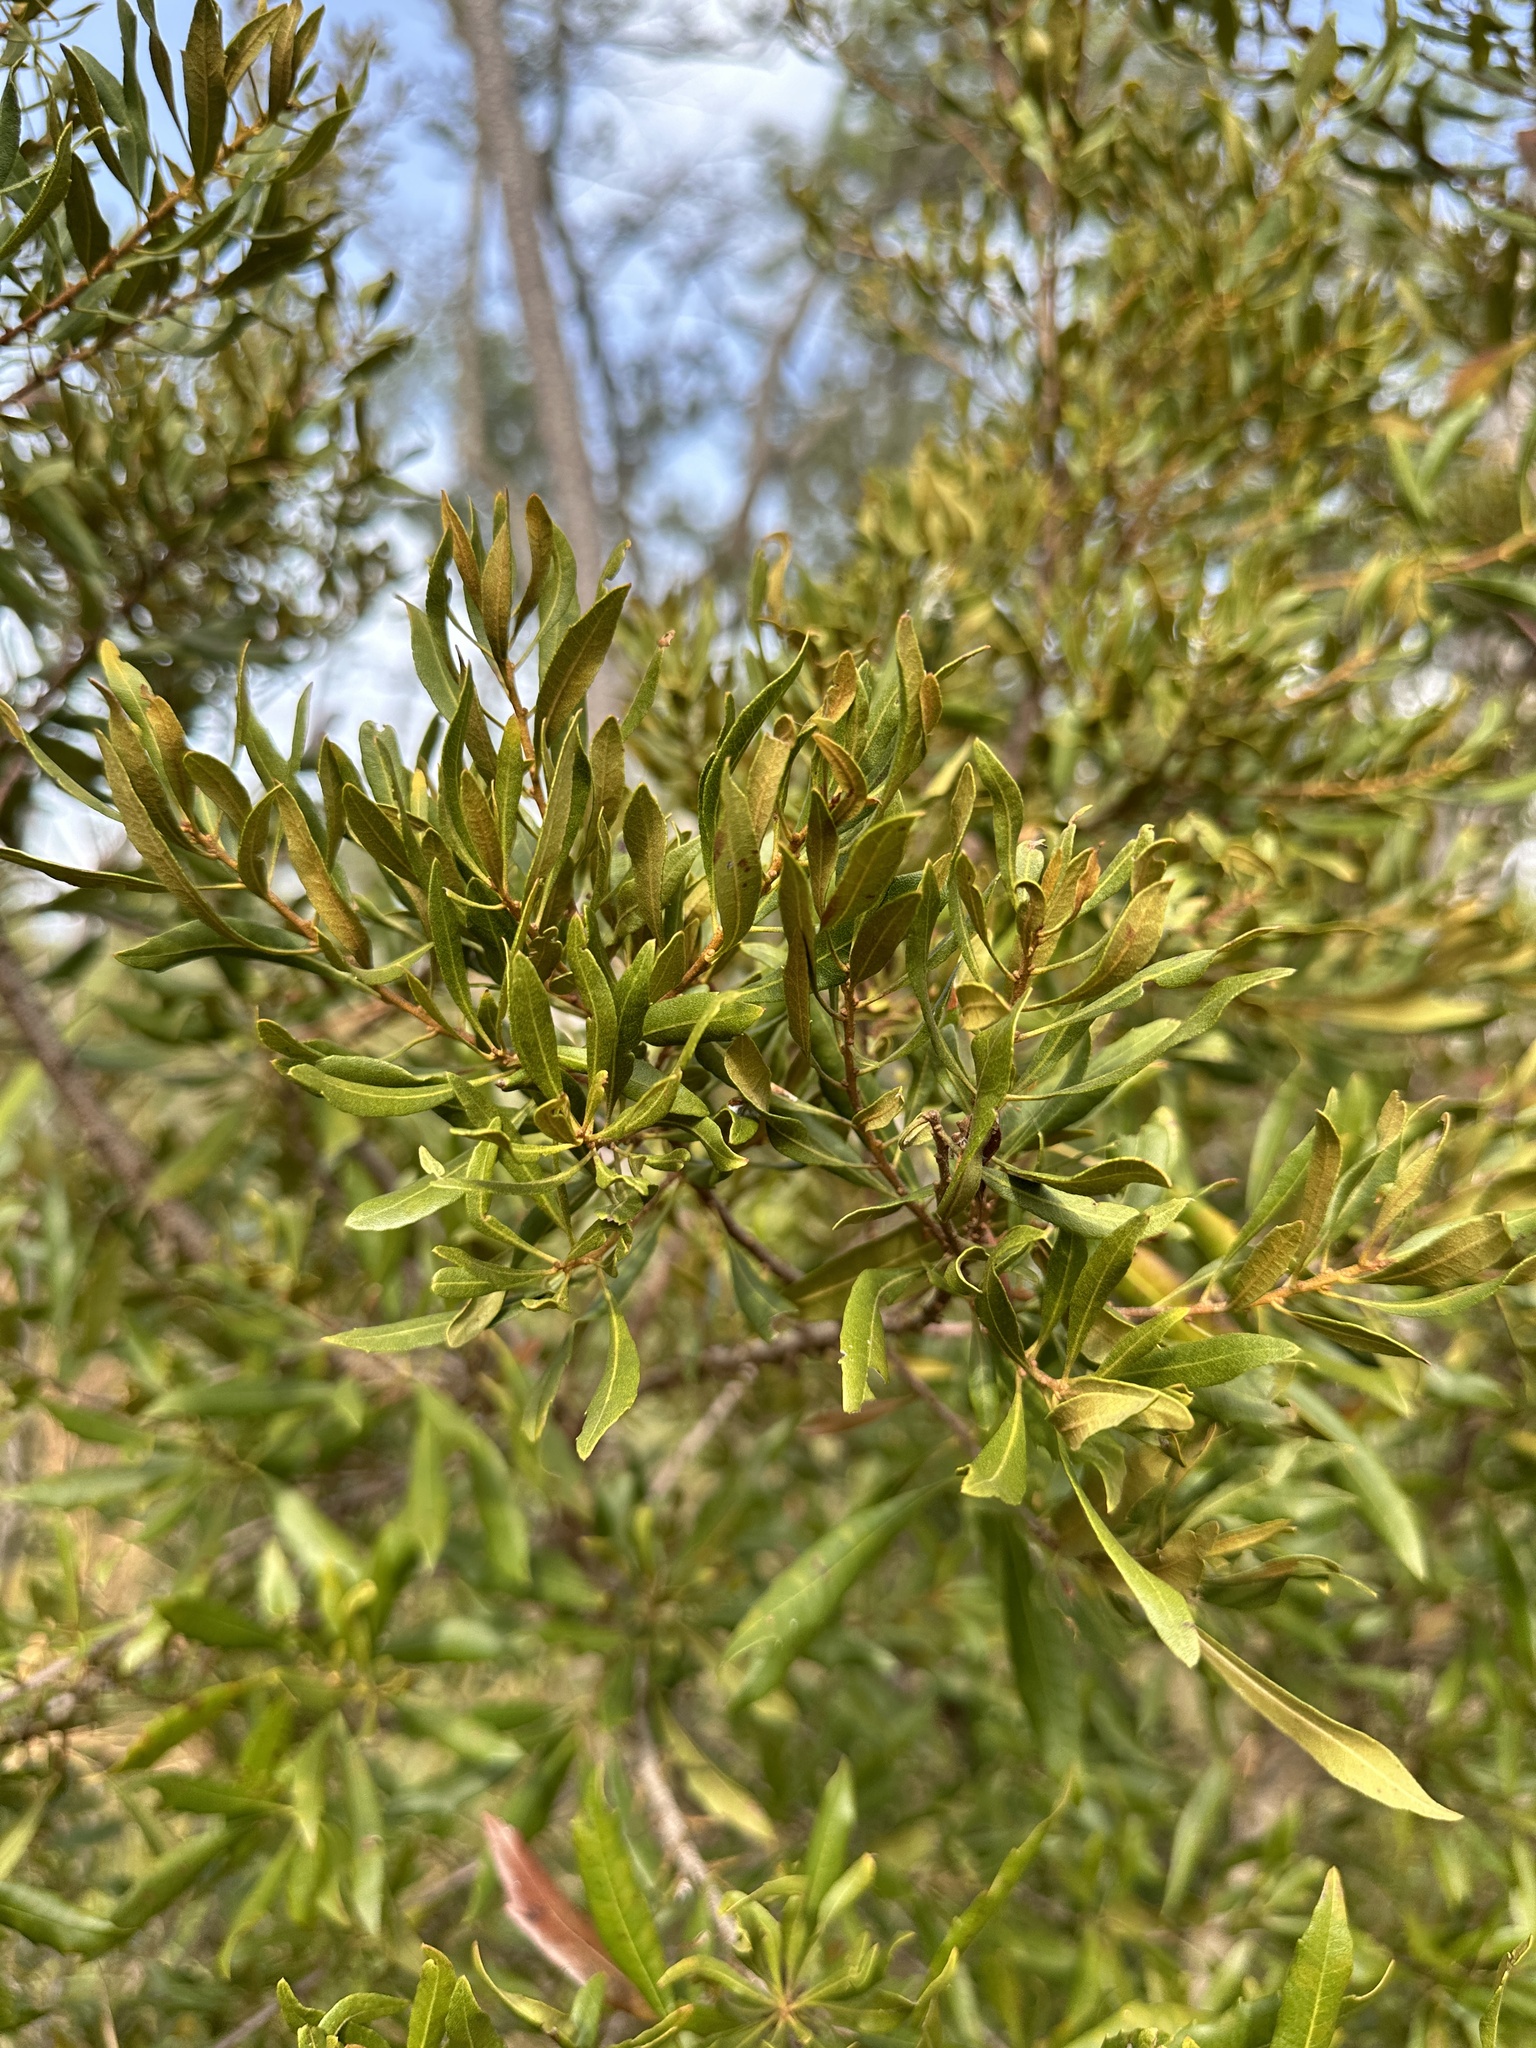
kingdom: Plantae
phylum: Tracheophyta
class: Magnoliopsida
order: Fagales
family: Myricaceae
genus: Morella
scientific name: Morella cerifera
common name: Wax myrtle
